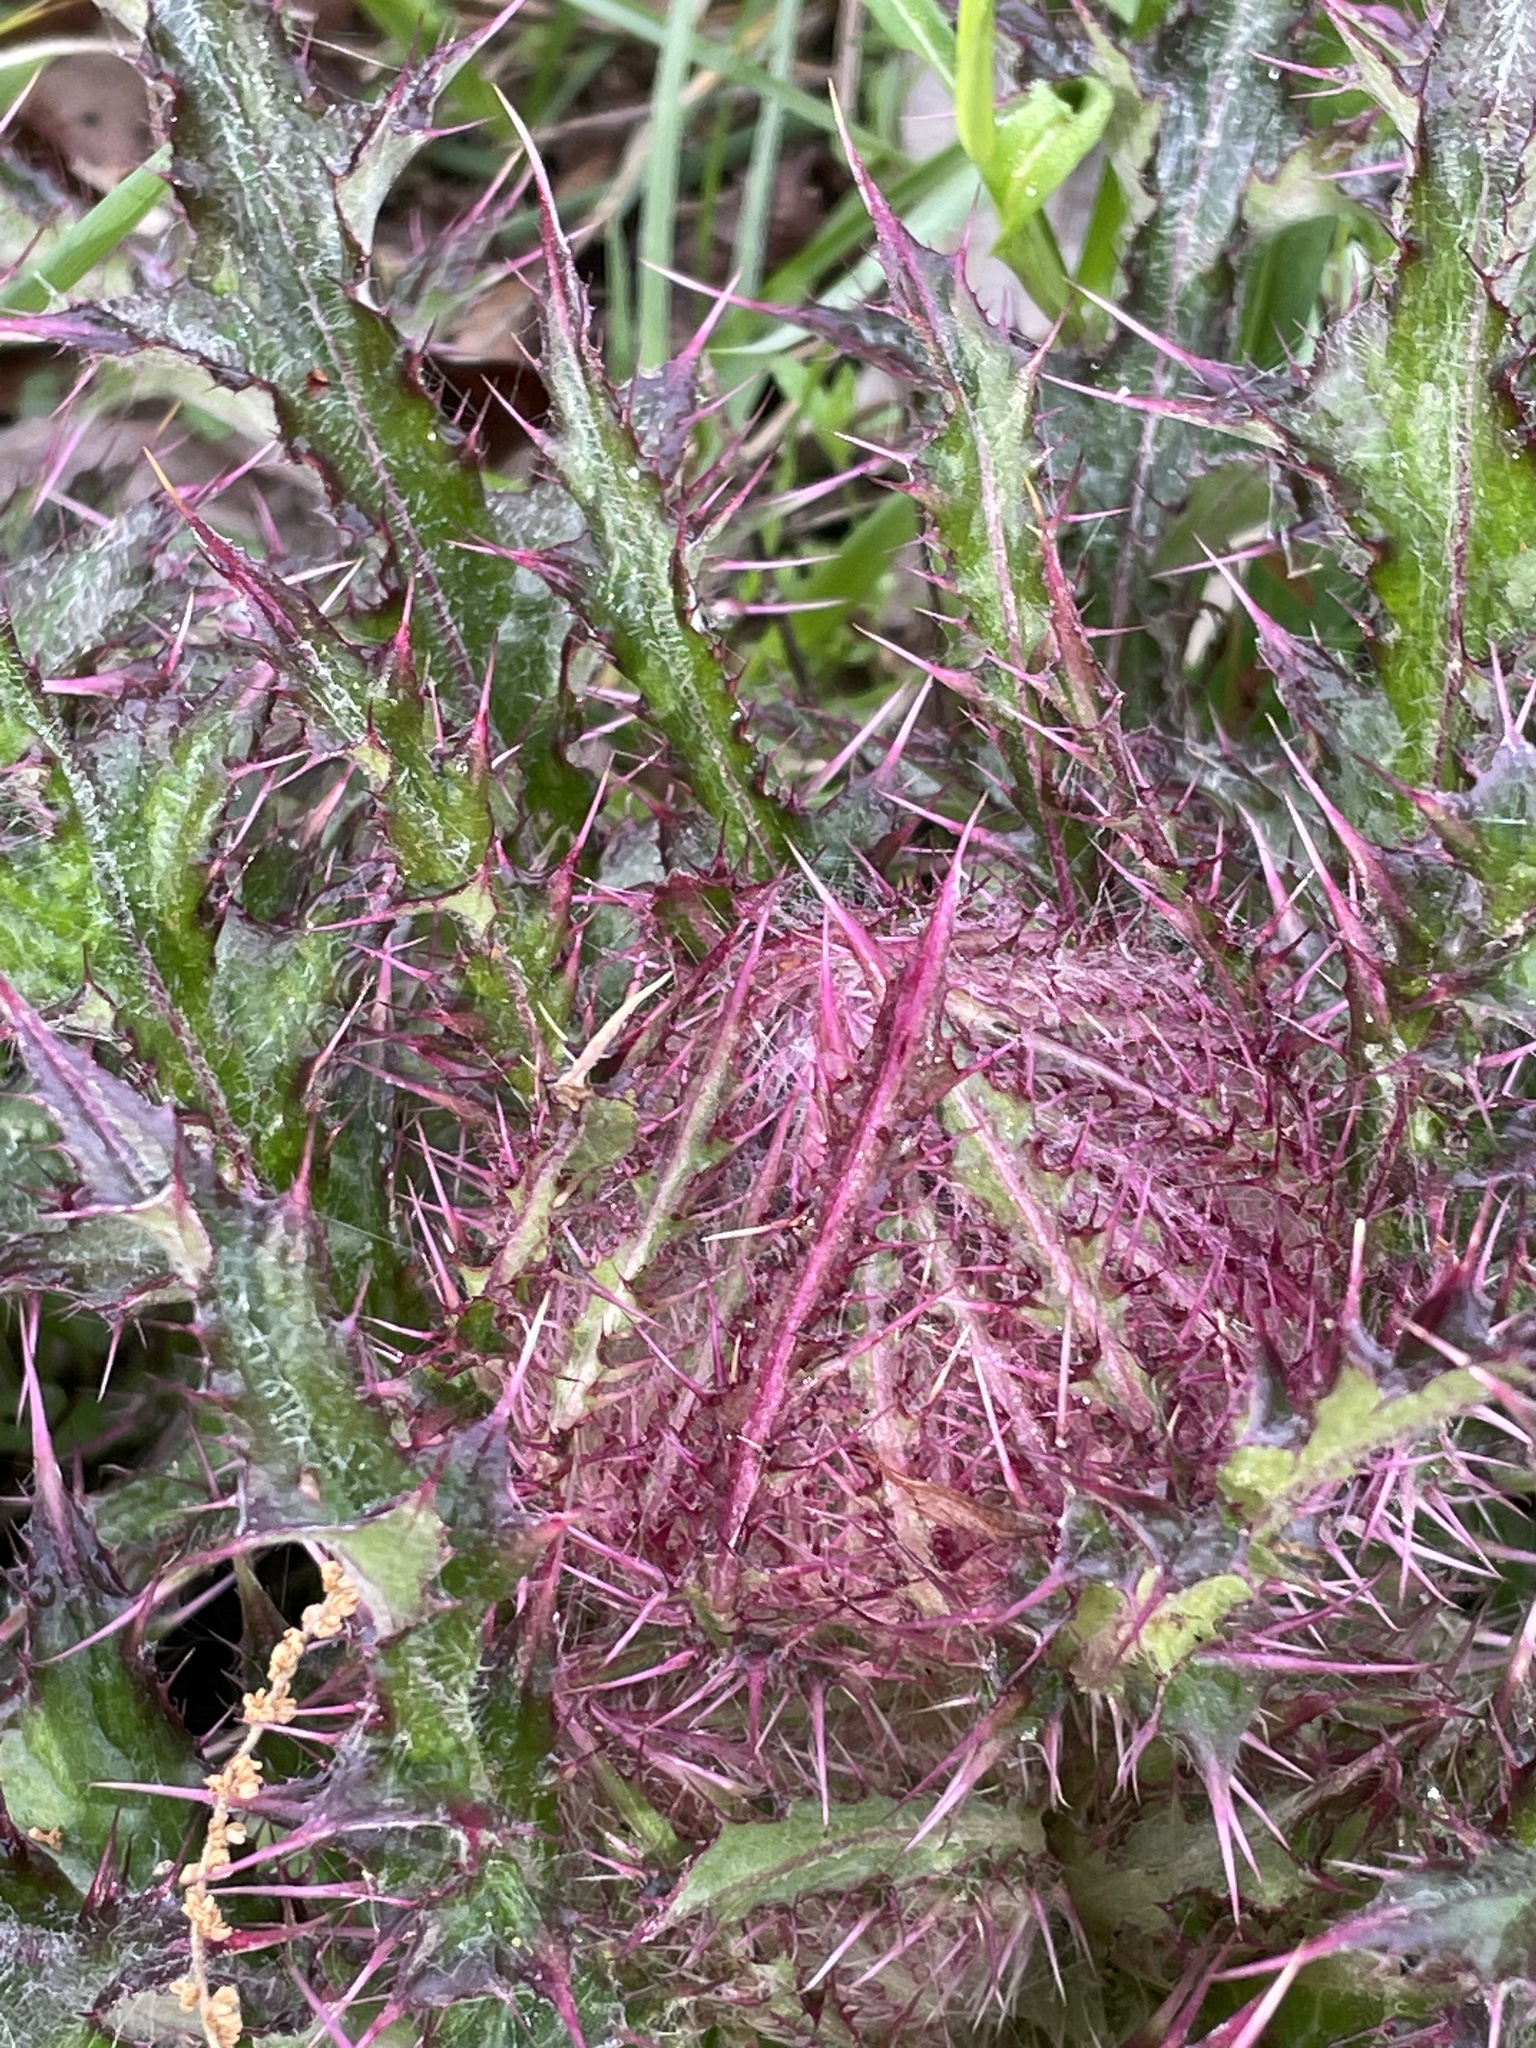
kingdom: Plantae
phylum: Tracheophyta
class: Magnoliopsida
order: Asterales
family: Asteraceae
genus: Cirsium
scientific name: Cirsium horridulum
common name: Bristly thistle
